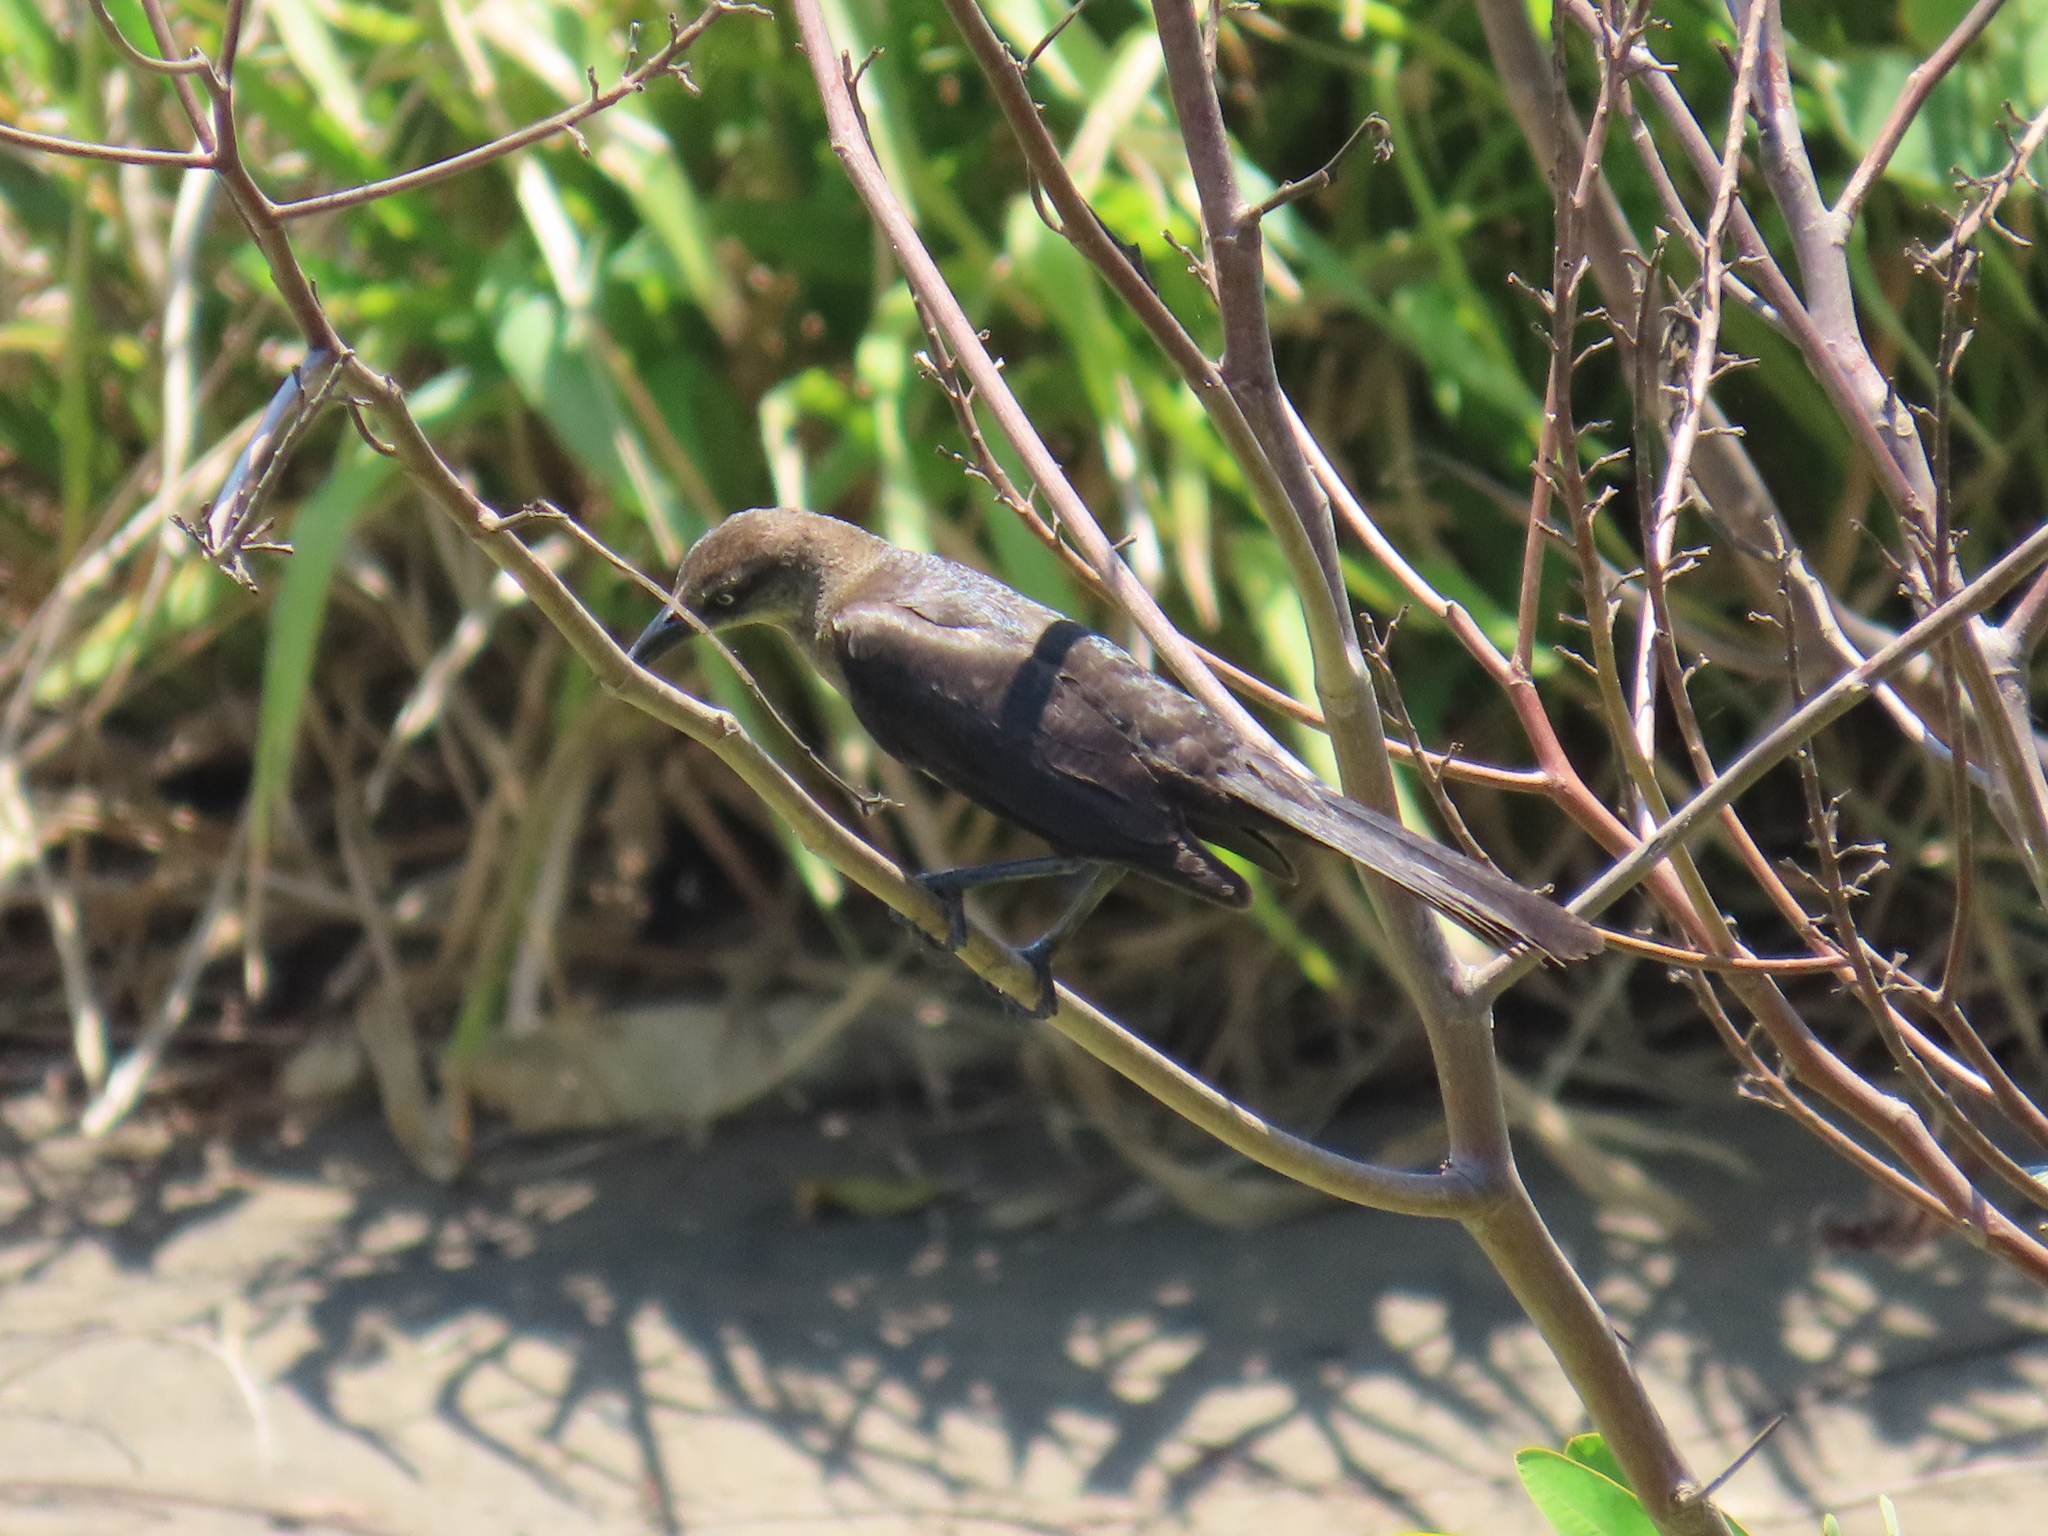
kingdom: Animalia
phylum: Chordata
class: Aves
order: Passeriformes
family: Icteridae
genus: Quiscalus
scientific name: Quiscalus mexicanus
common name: Great-tailed grackle
